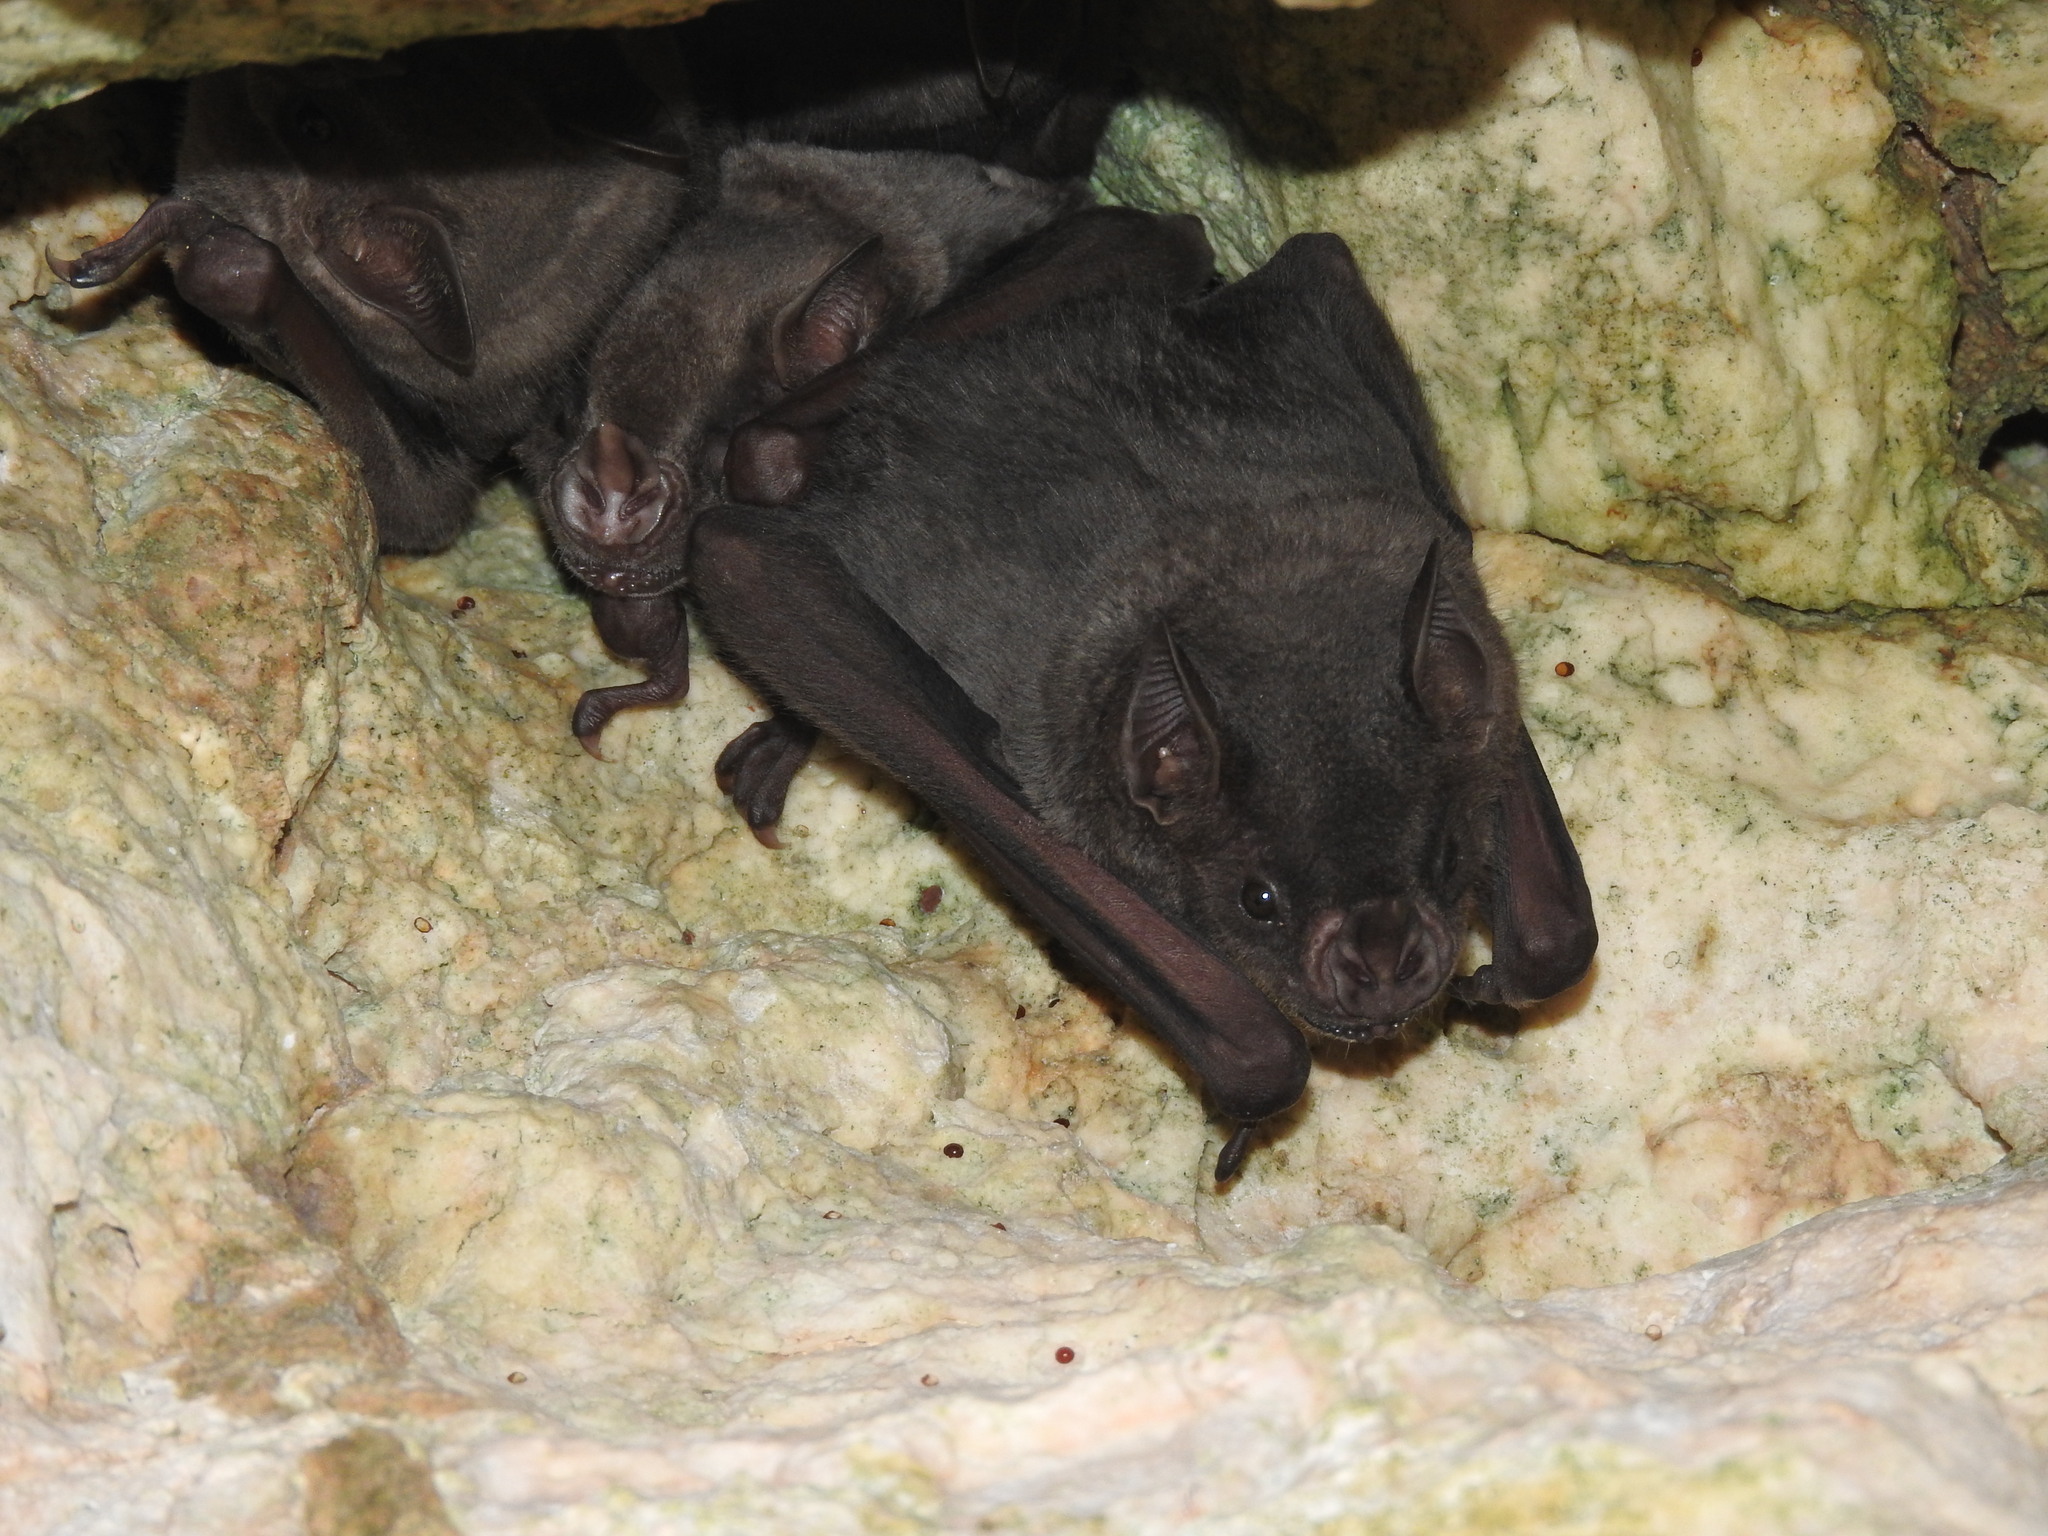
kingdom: Animalia
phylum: Chordata
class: Mammalia
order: Chiroptera
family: Phyllostomidae
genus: Artibeus
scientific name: Artibeus jamaicensis
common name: Jamaican fruit-eating bat
